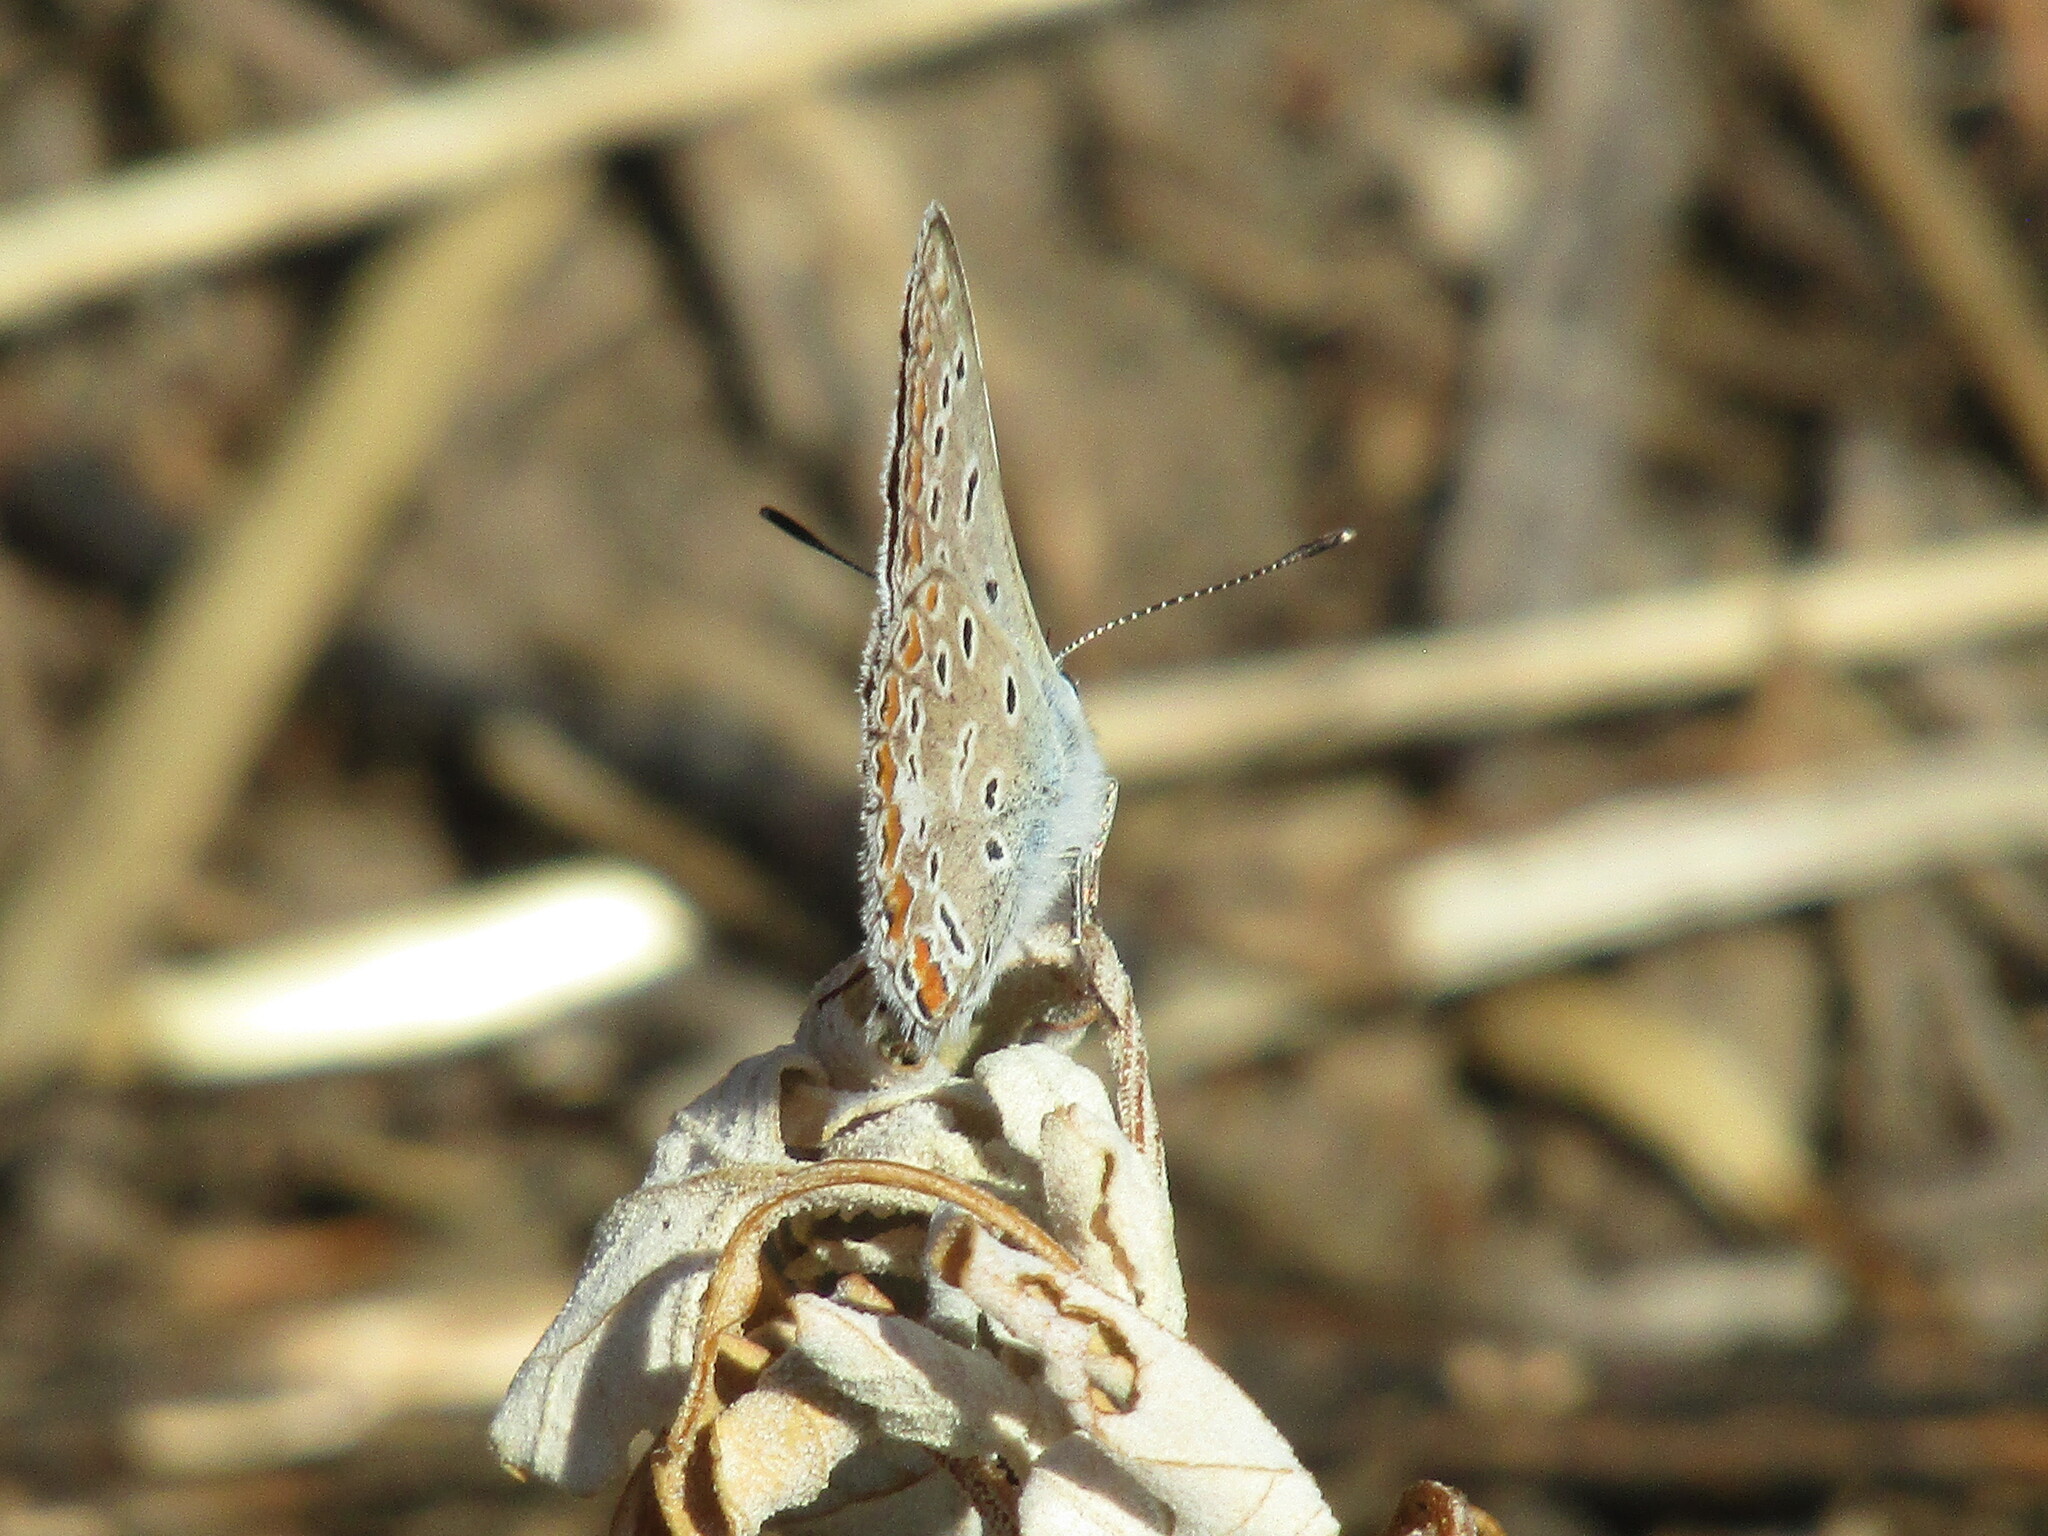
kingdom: Animalia
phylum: Arthropoda
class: Insecta
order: Lepidoptera
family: Lycaenidae
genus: Polyommatus
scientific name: Polyommatus icarus
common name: Common blue
